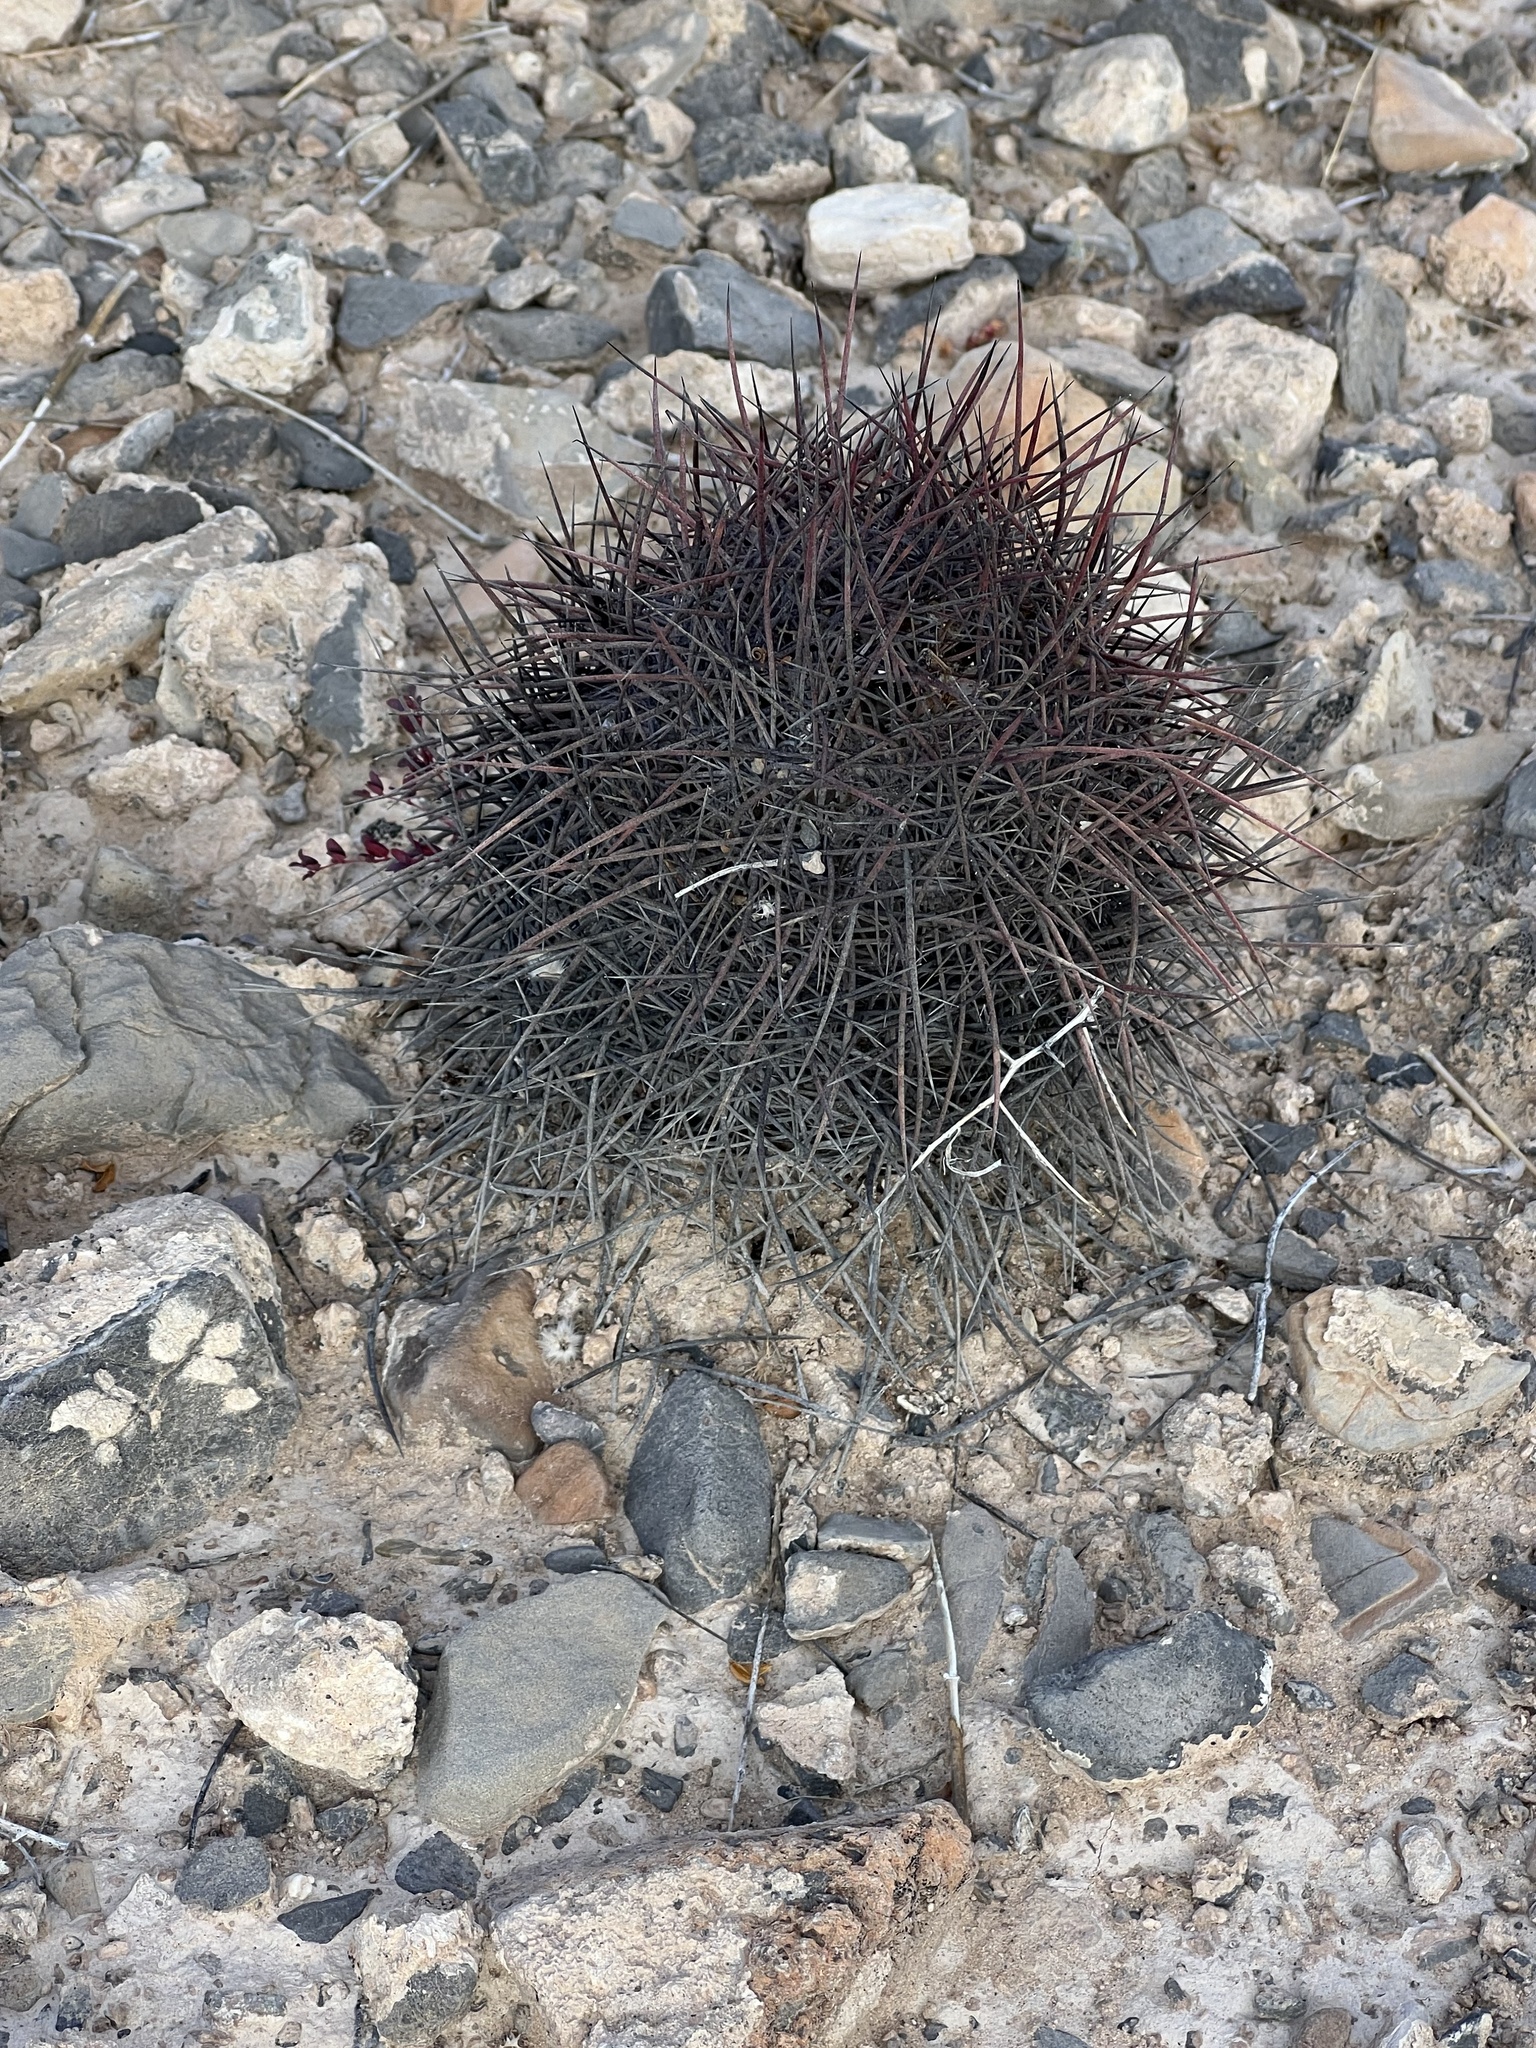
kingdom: Plantae
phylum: Tracheophyta
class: Magnoliopsida
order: Caryophyllales
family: Cactaceae
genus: Sclerocactus
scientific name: Sclerocactus johnsonii
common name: Eight-spine fishhook cactus
